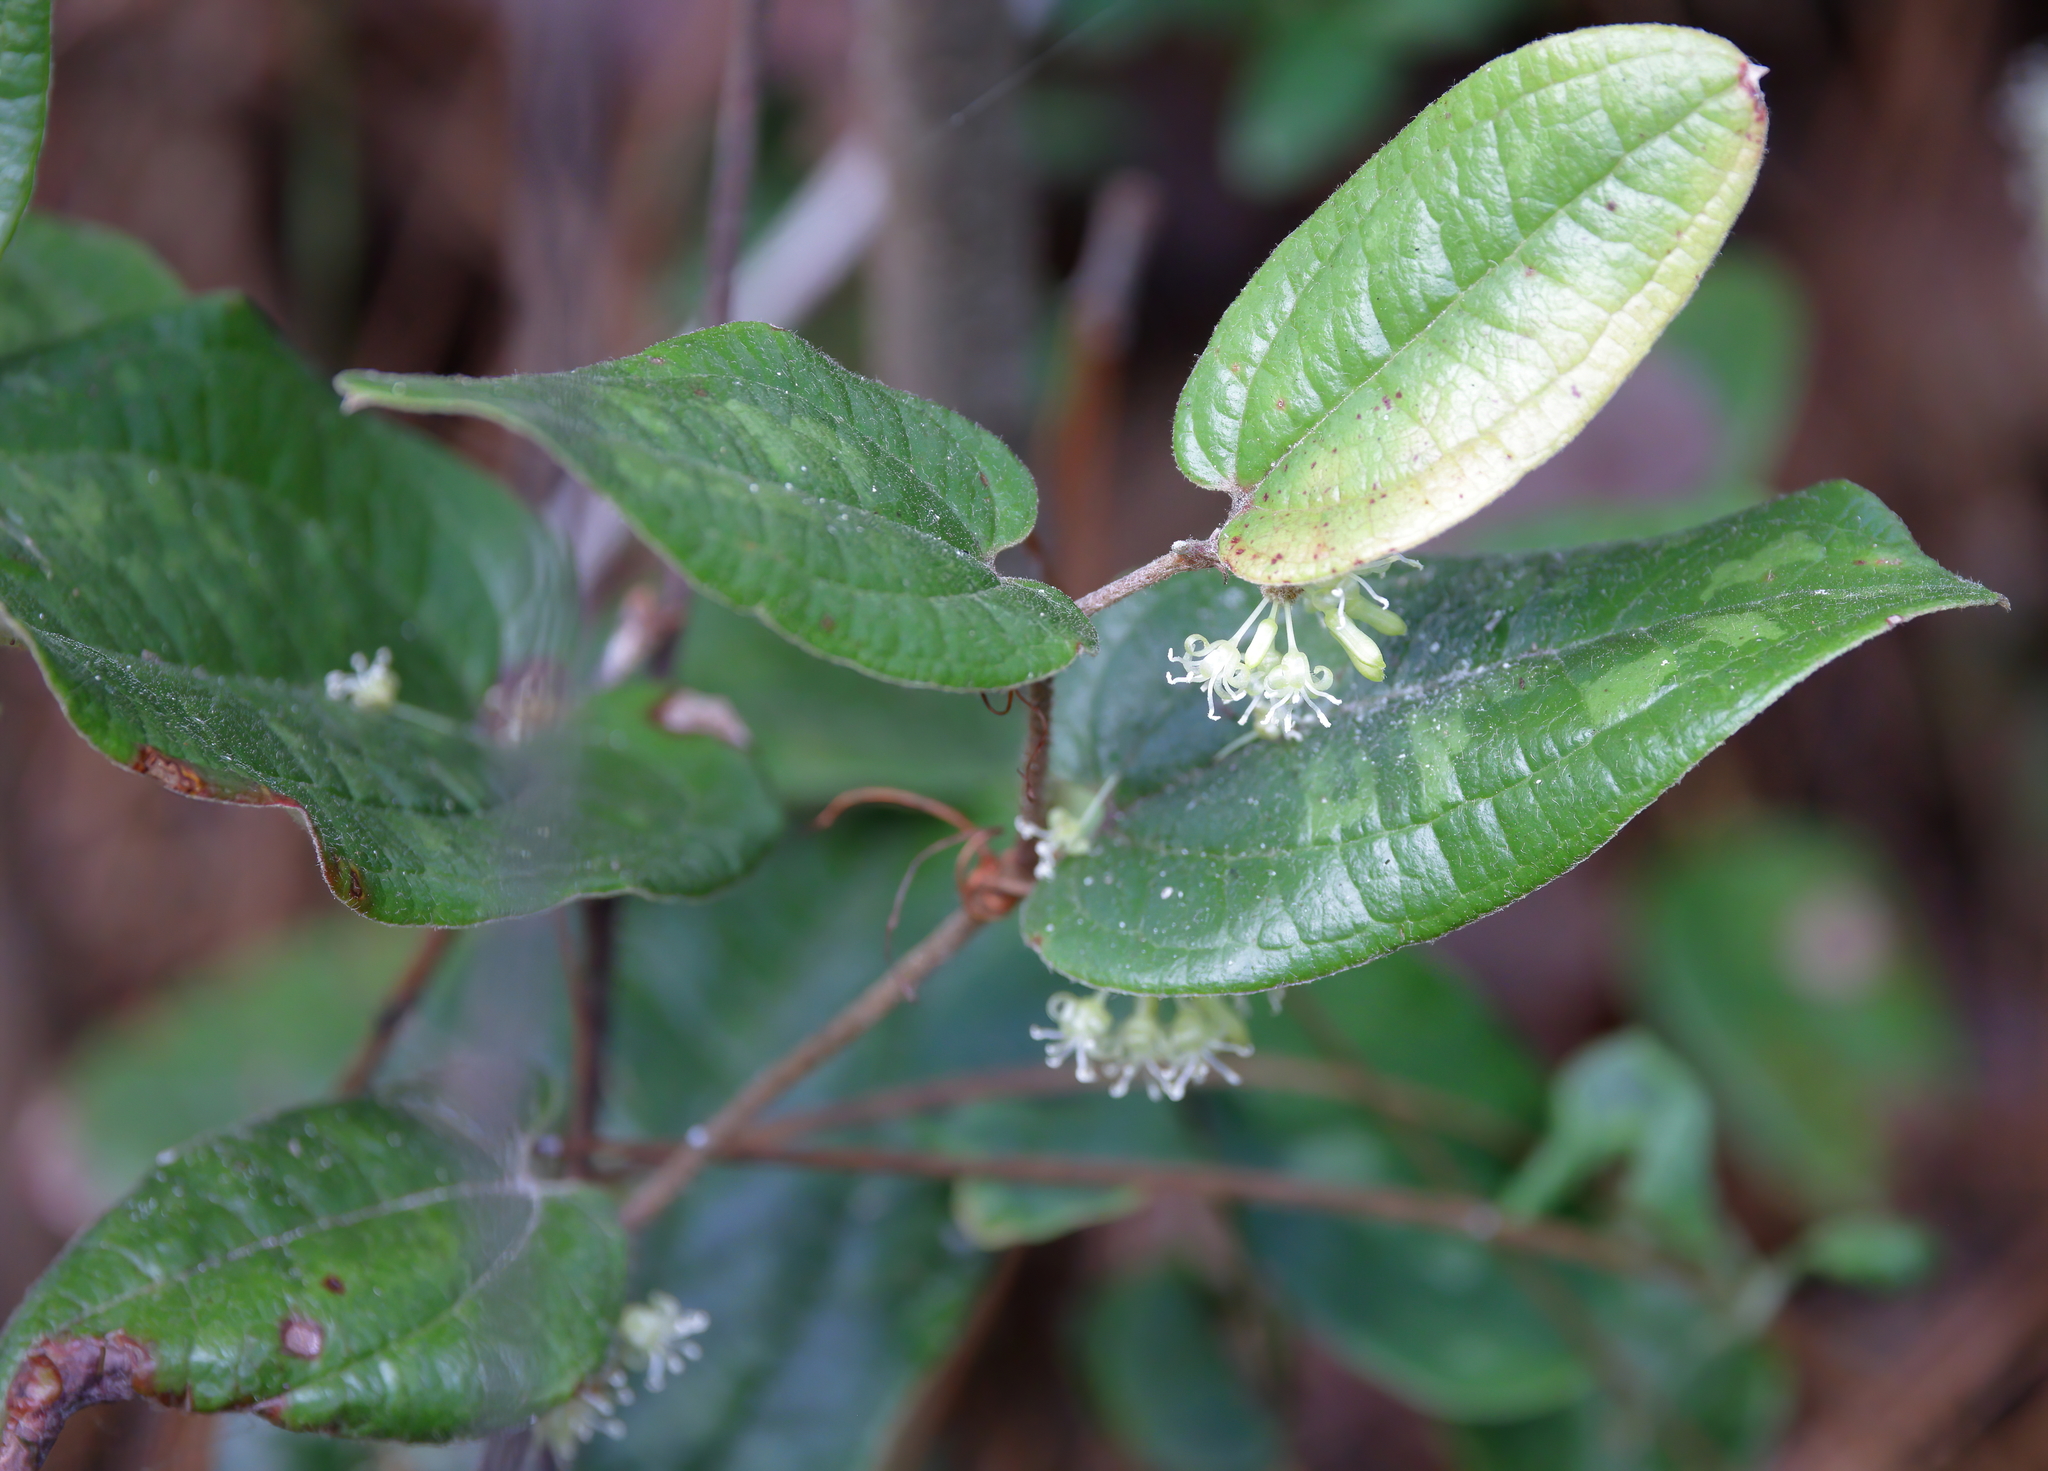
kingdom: Plantae
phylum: Tracheophyta
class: Liliopsida
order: Liliales
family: Smilacaceae
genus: Smilax
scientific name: Smilax pumila
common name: Sarsaparilla-vine
